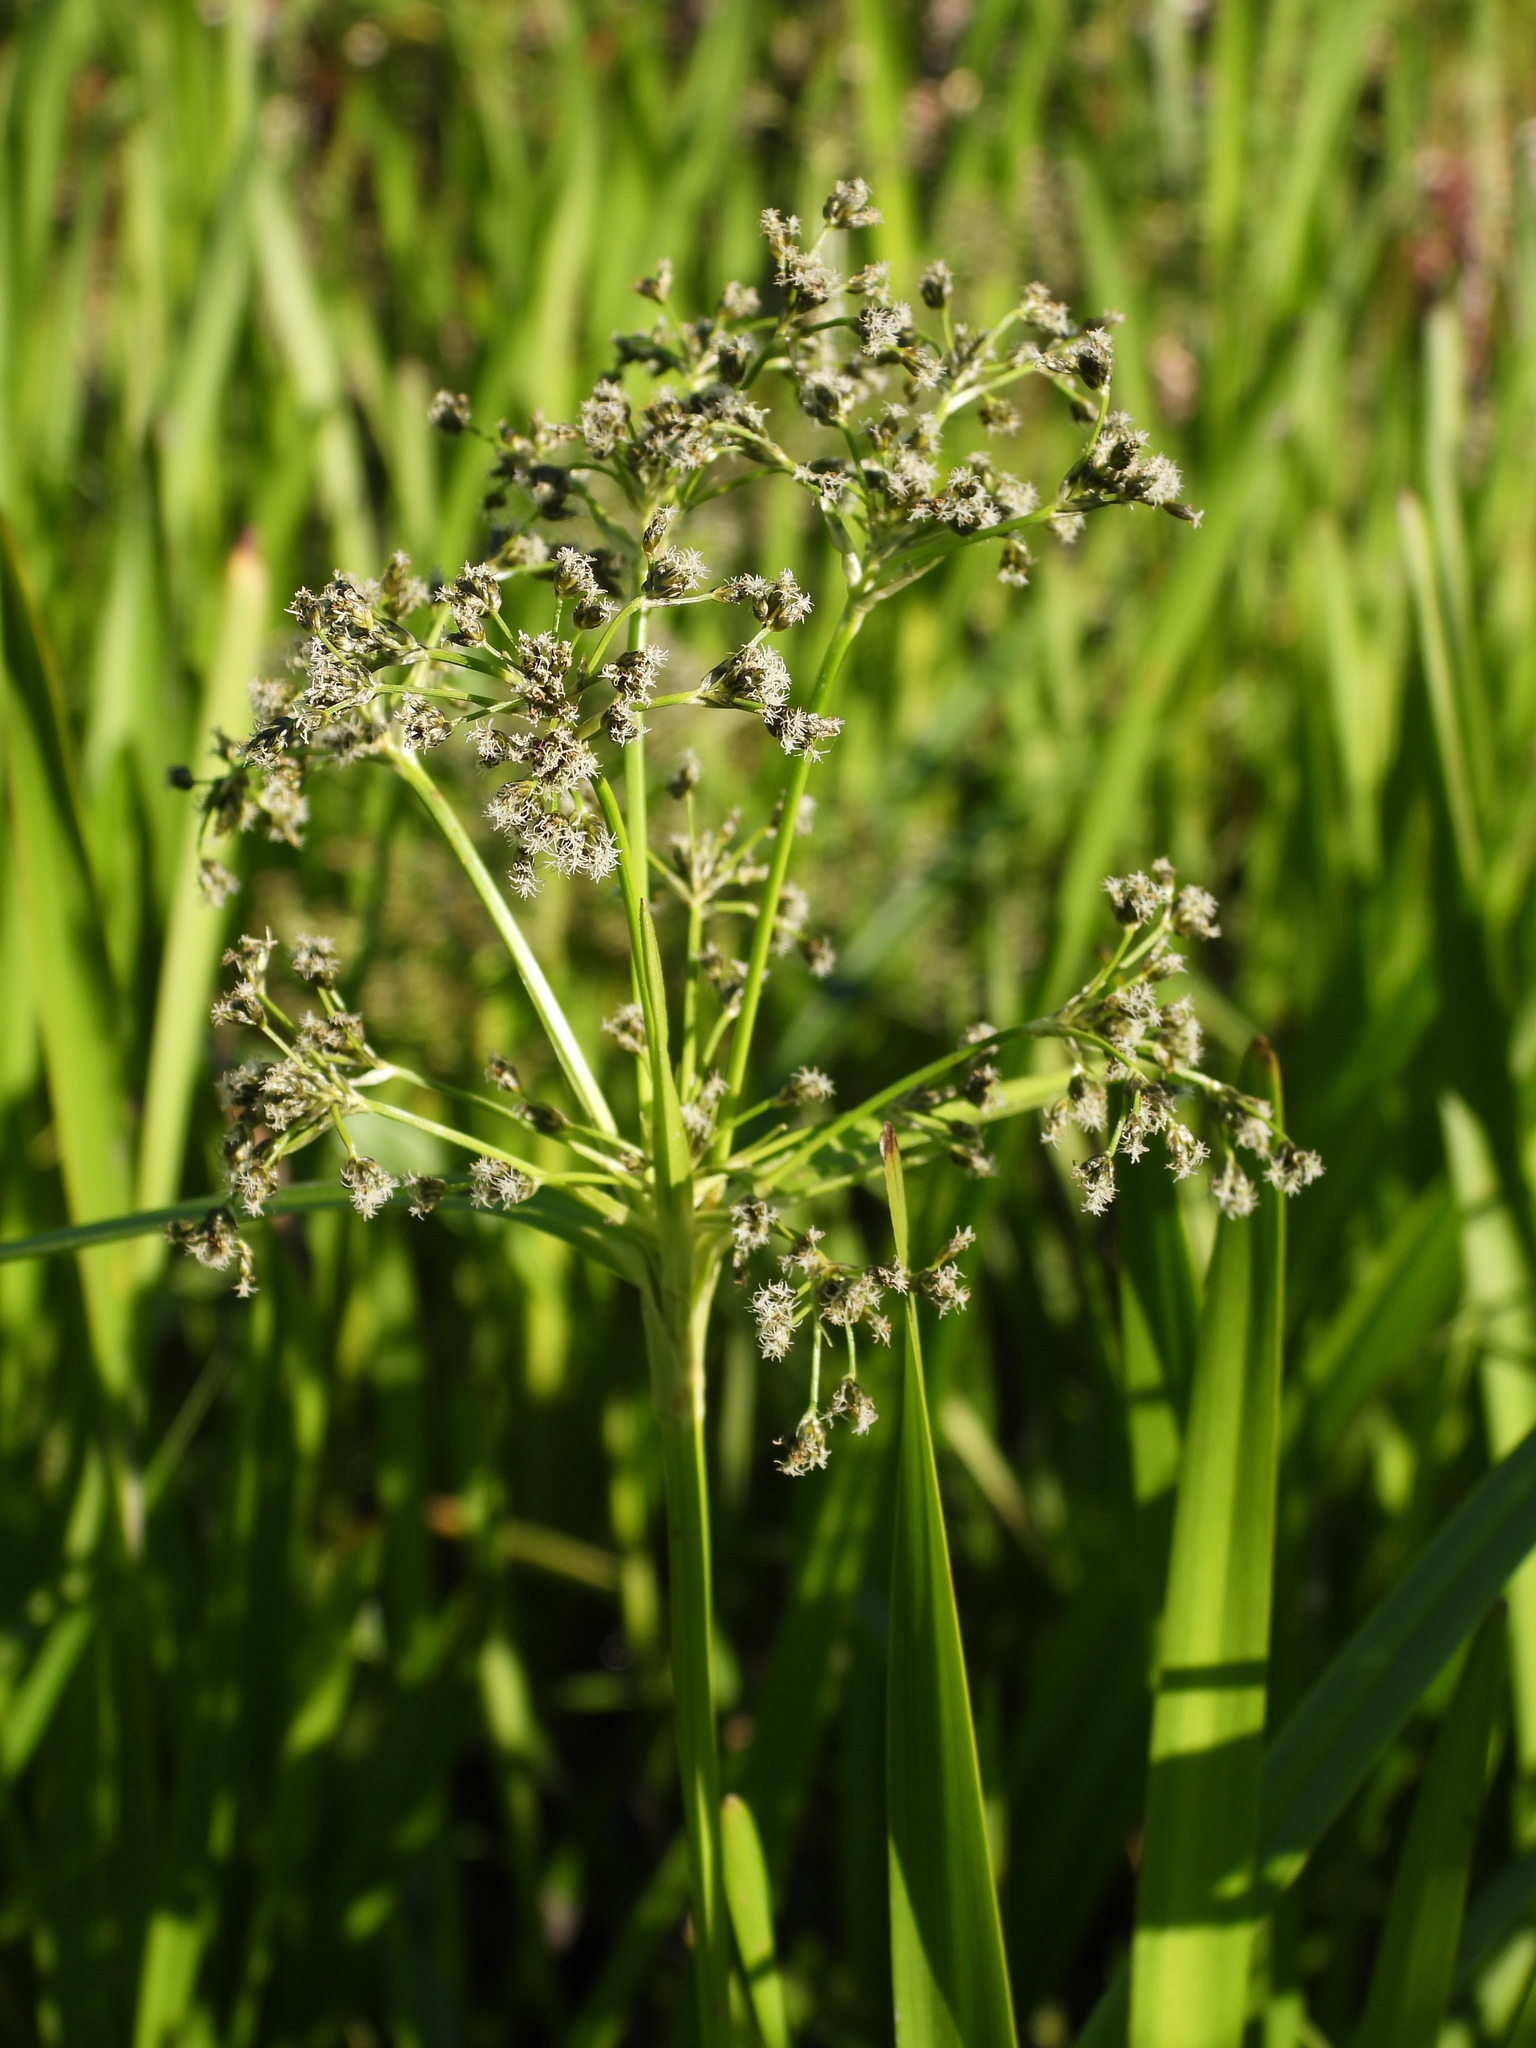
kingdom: Plantae
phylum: Tracheophyta
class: Liliopsida
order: Poales
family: Cyperaceae
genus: Scirpus
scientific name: Scirpus sylvaticus
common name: Wood club-rush
